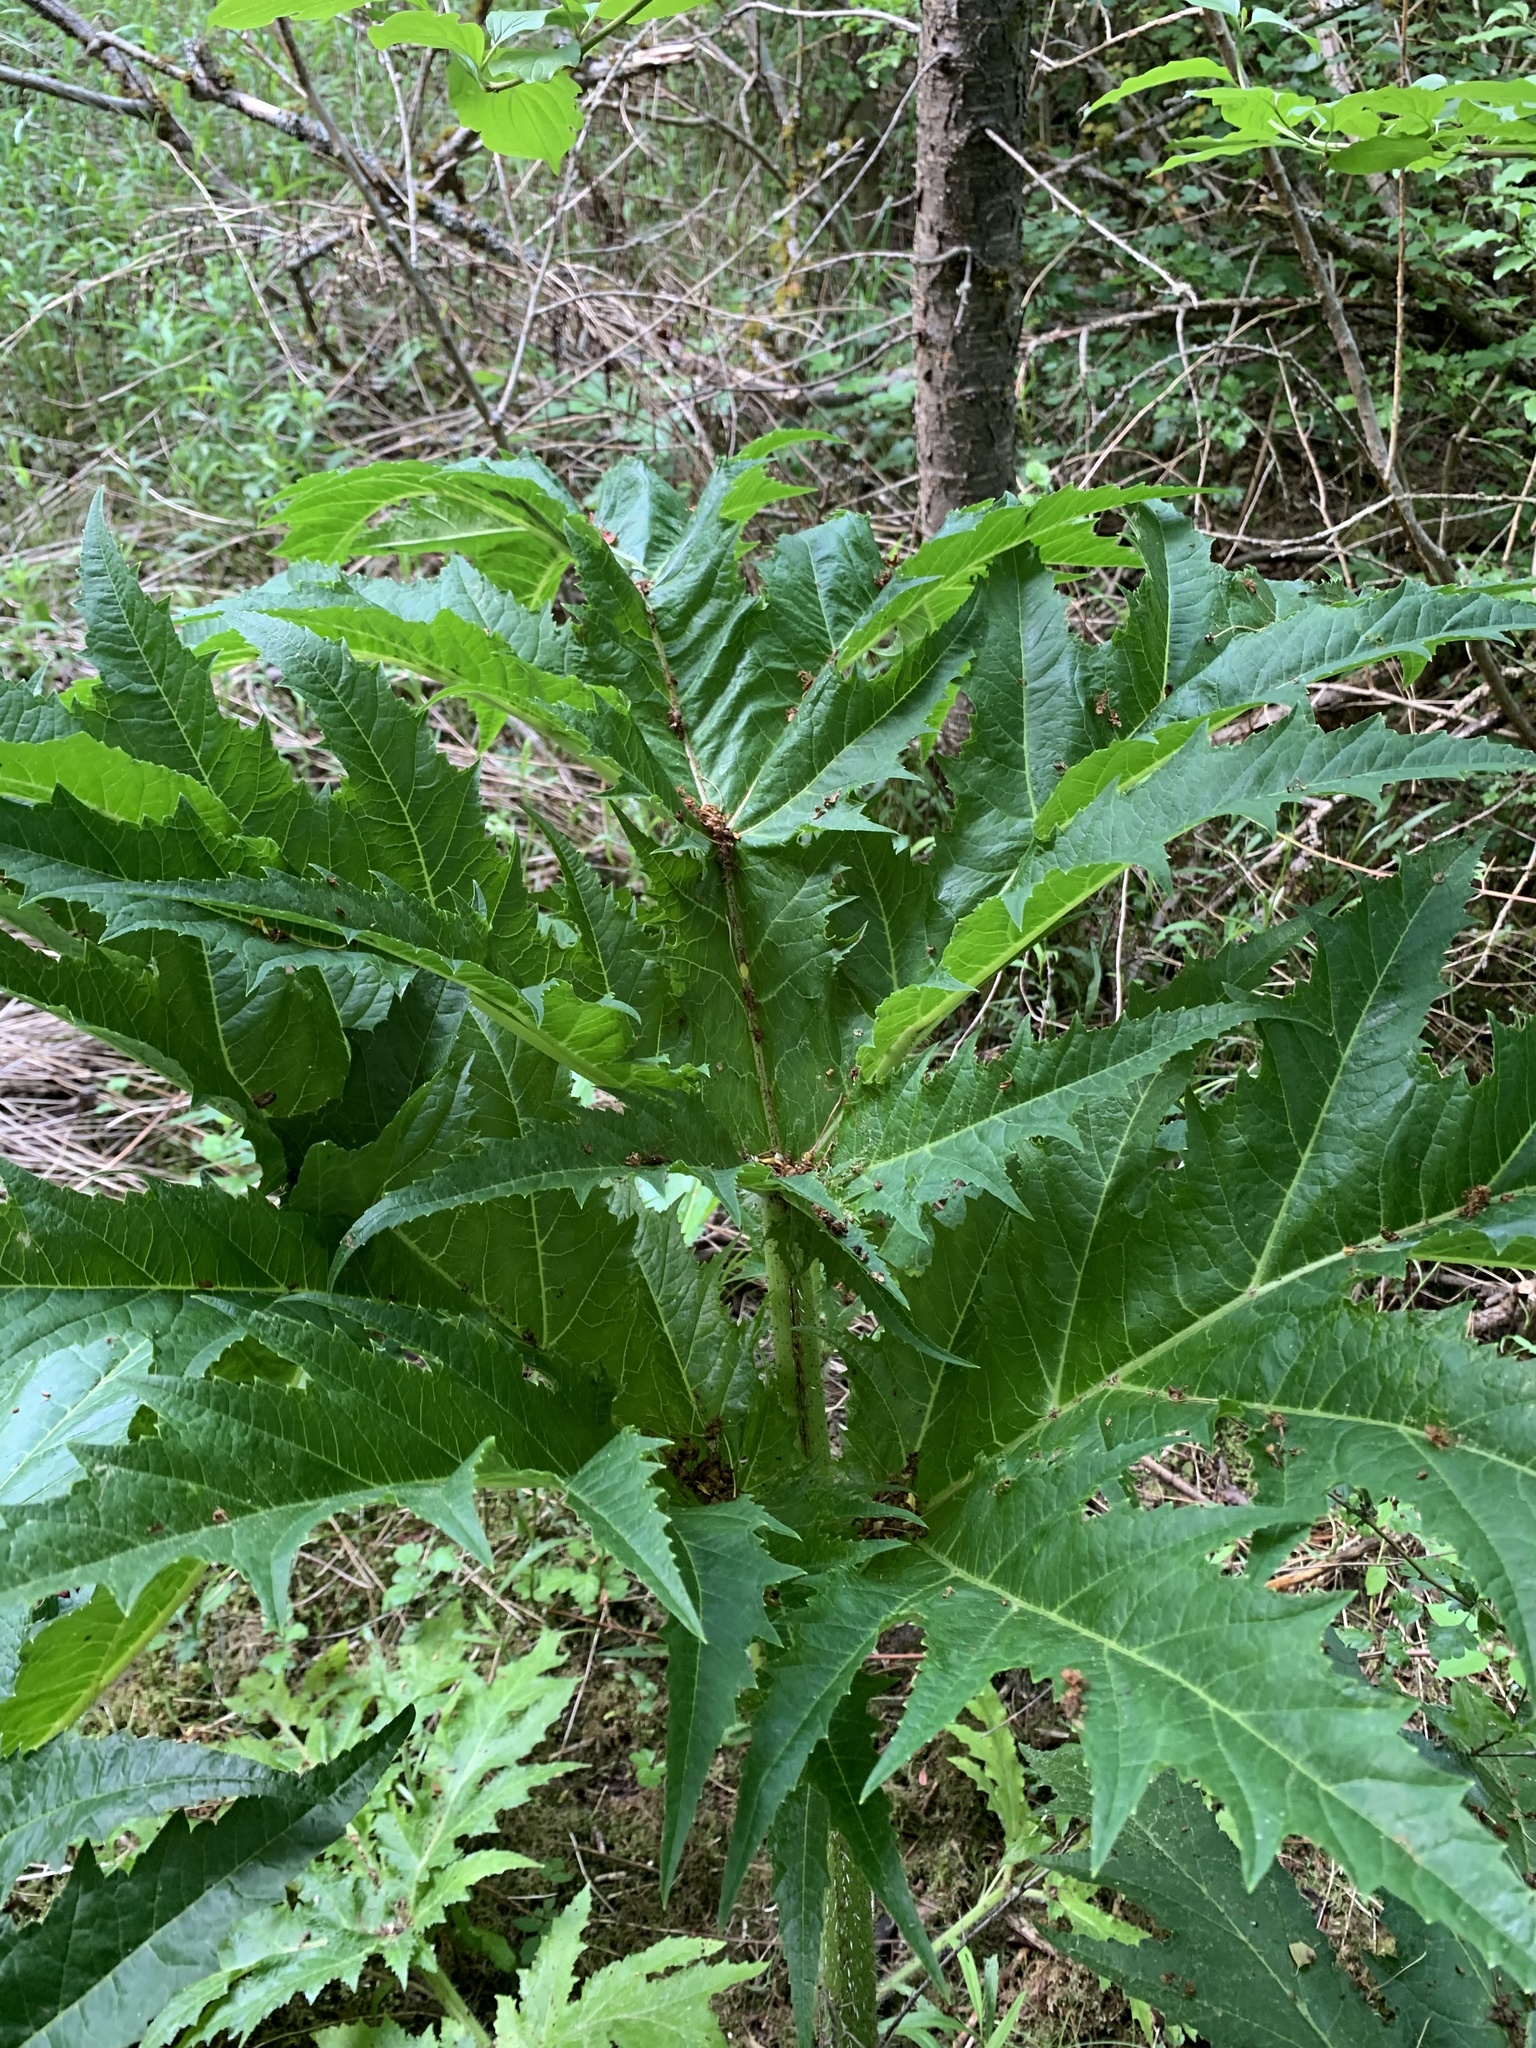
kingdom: Plantae
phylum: Tracheophyta
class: Magnoliopsida
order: Apiales
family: Apiaceae
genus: Heracleum
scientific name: Heracleum mantegazzianum
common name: Giant hogweed
